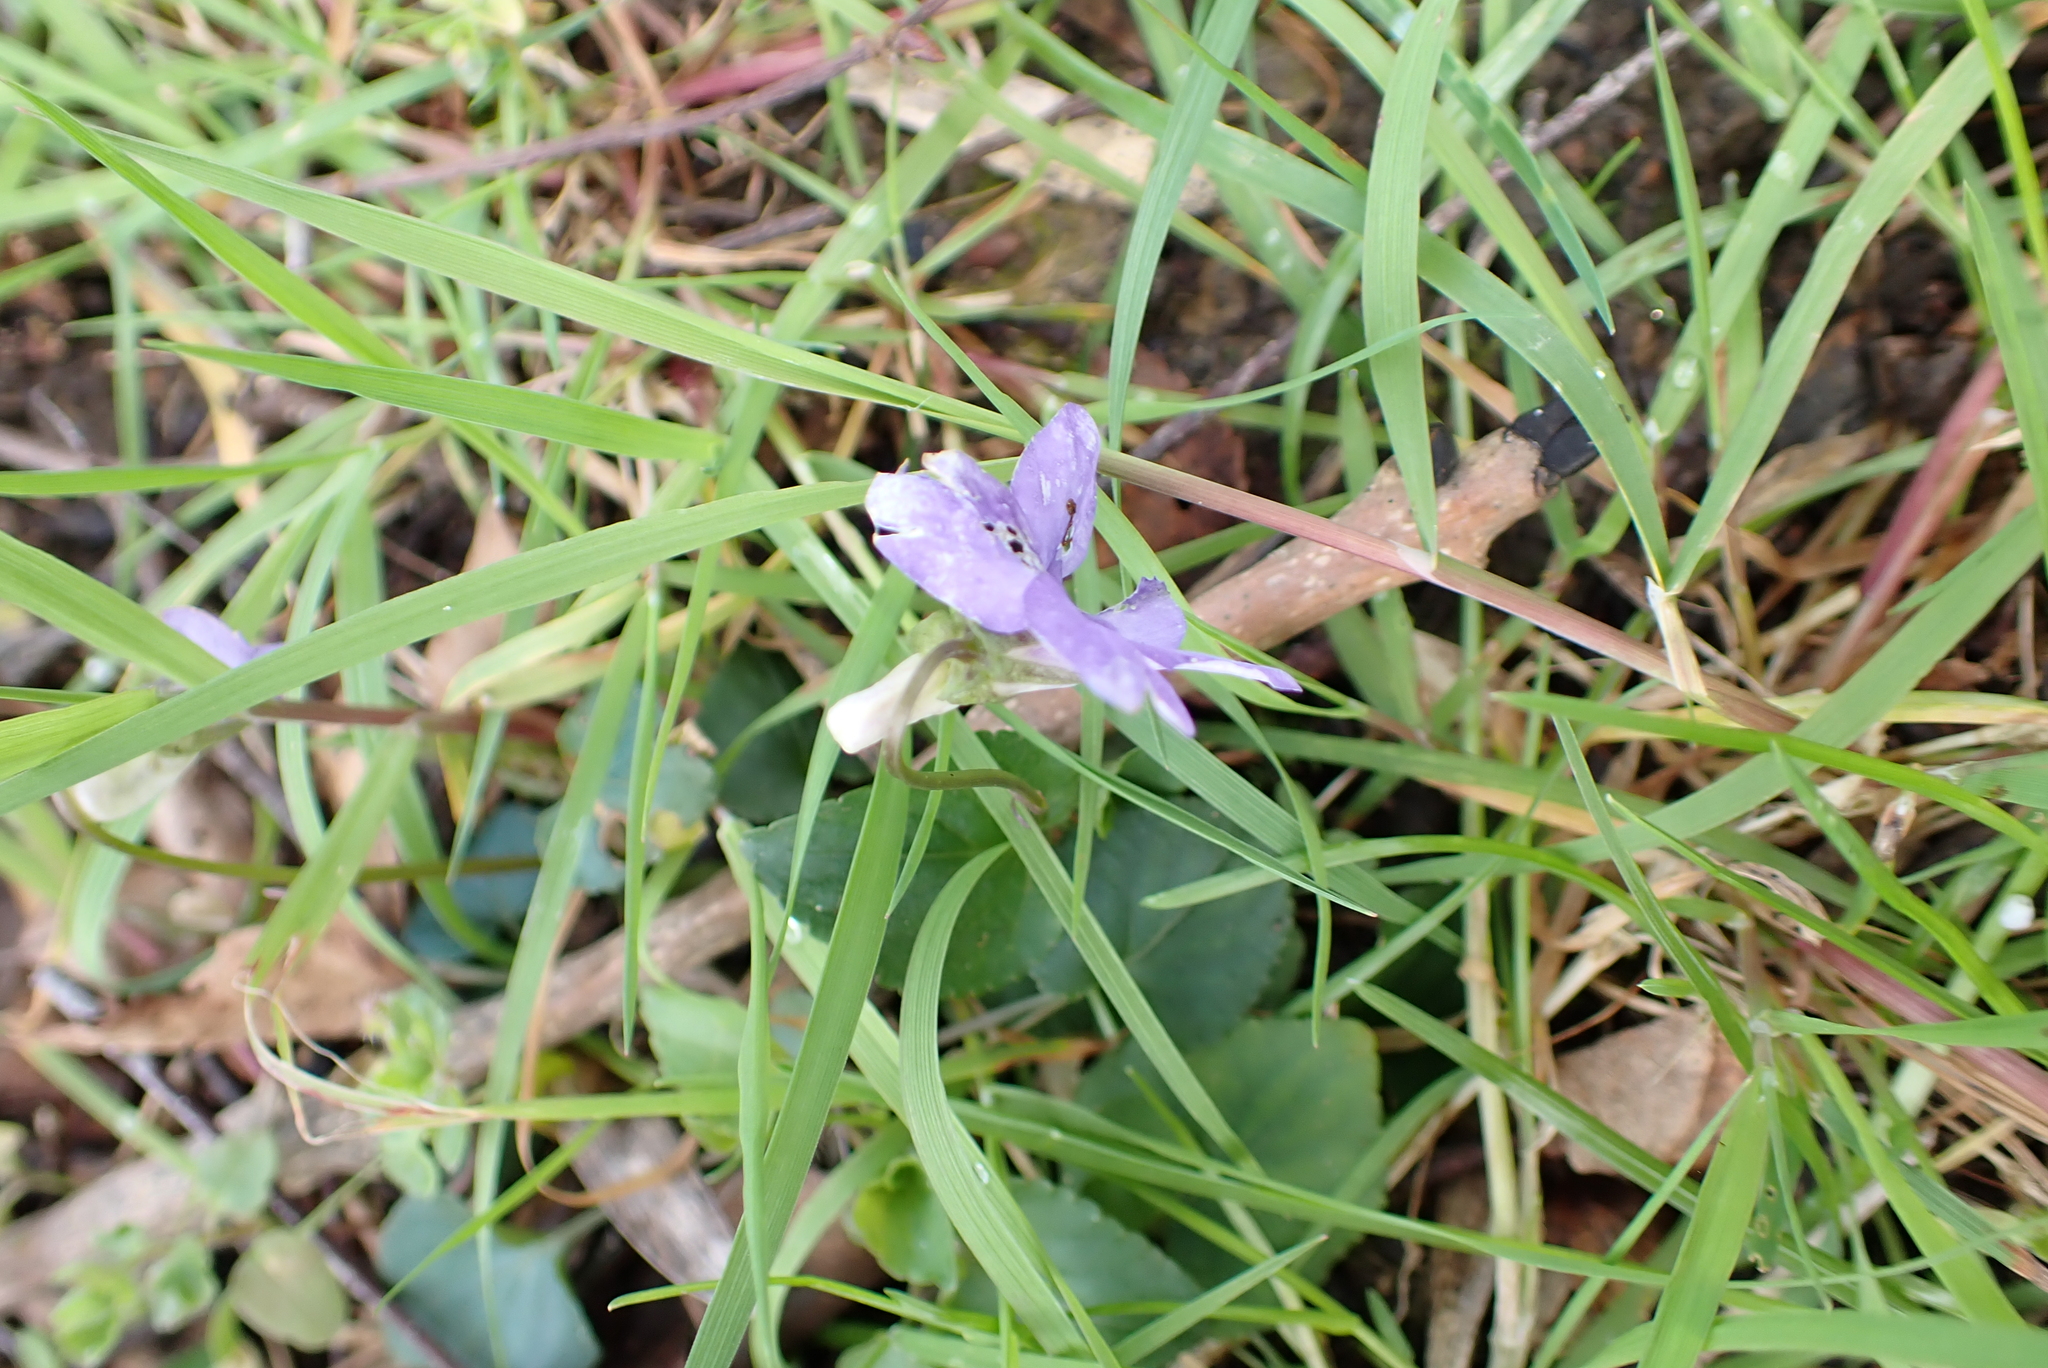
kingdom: Plantae
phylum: Tracheophyta
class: Magnoliopsida
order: Malpighiales
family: Violaceae
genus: Viola
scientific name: Viola riviniana
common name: Common dog-violet
